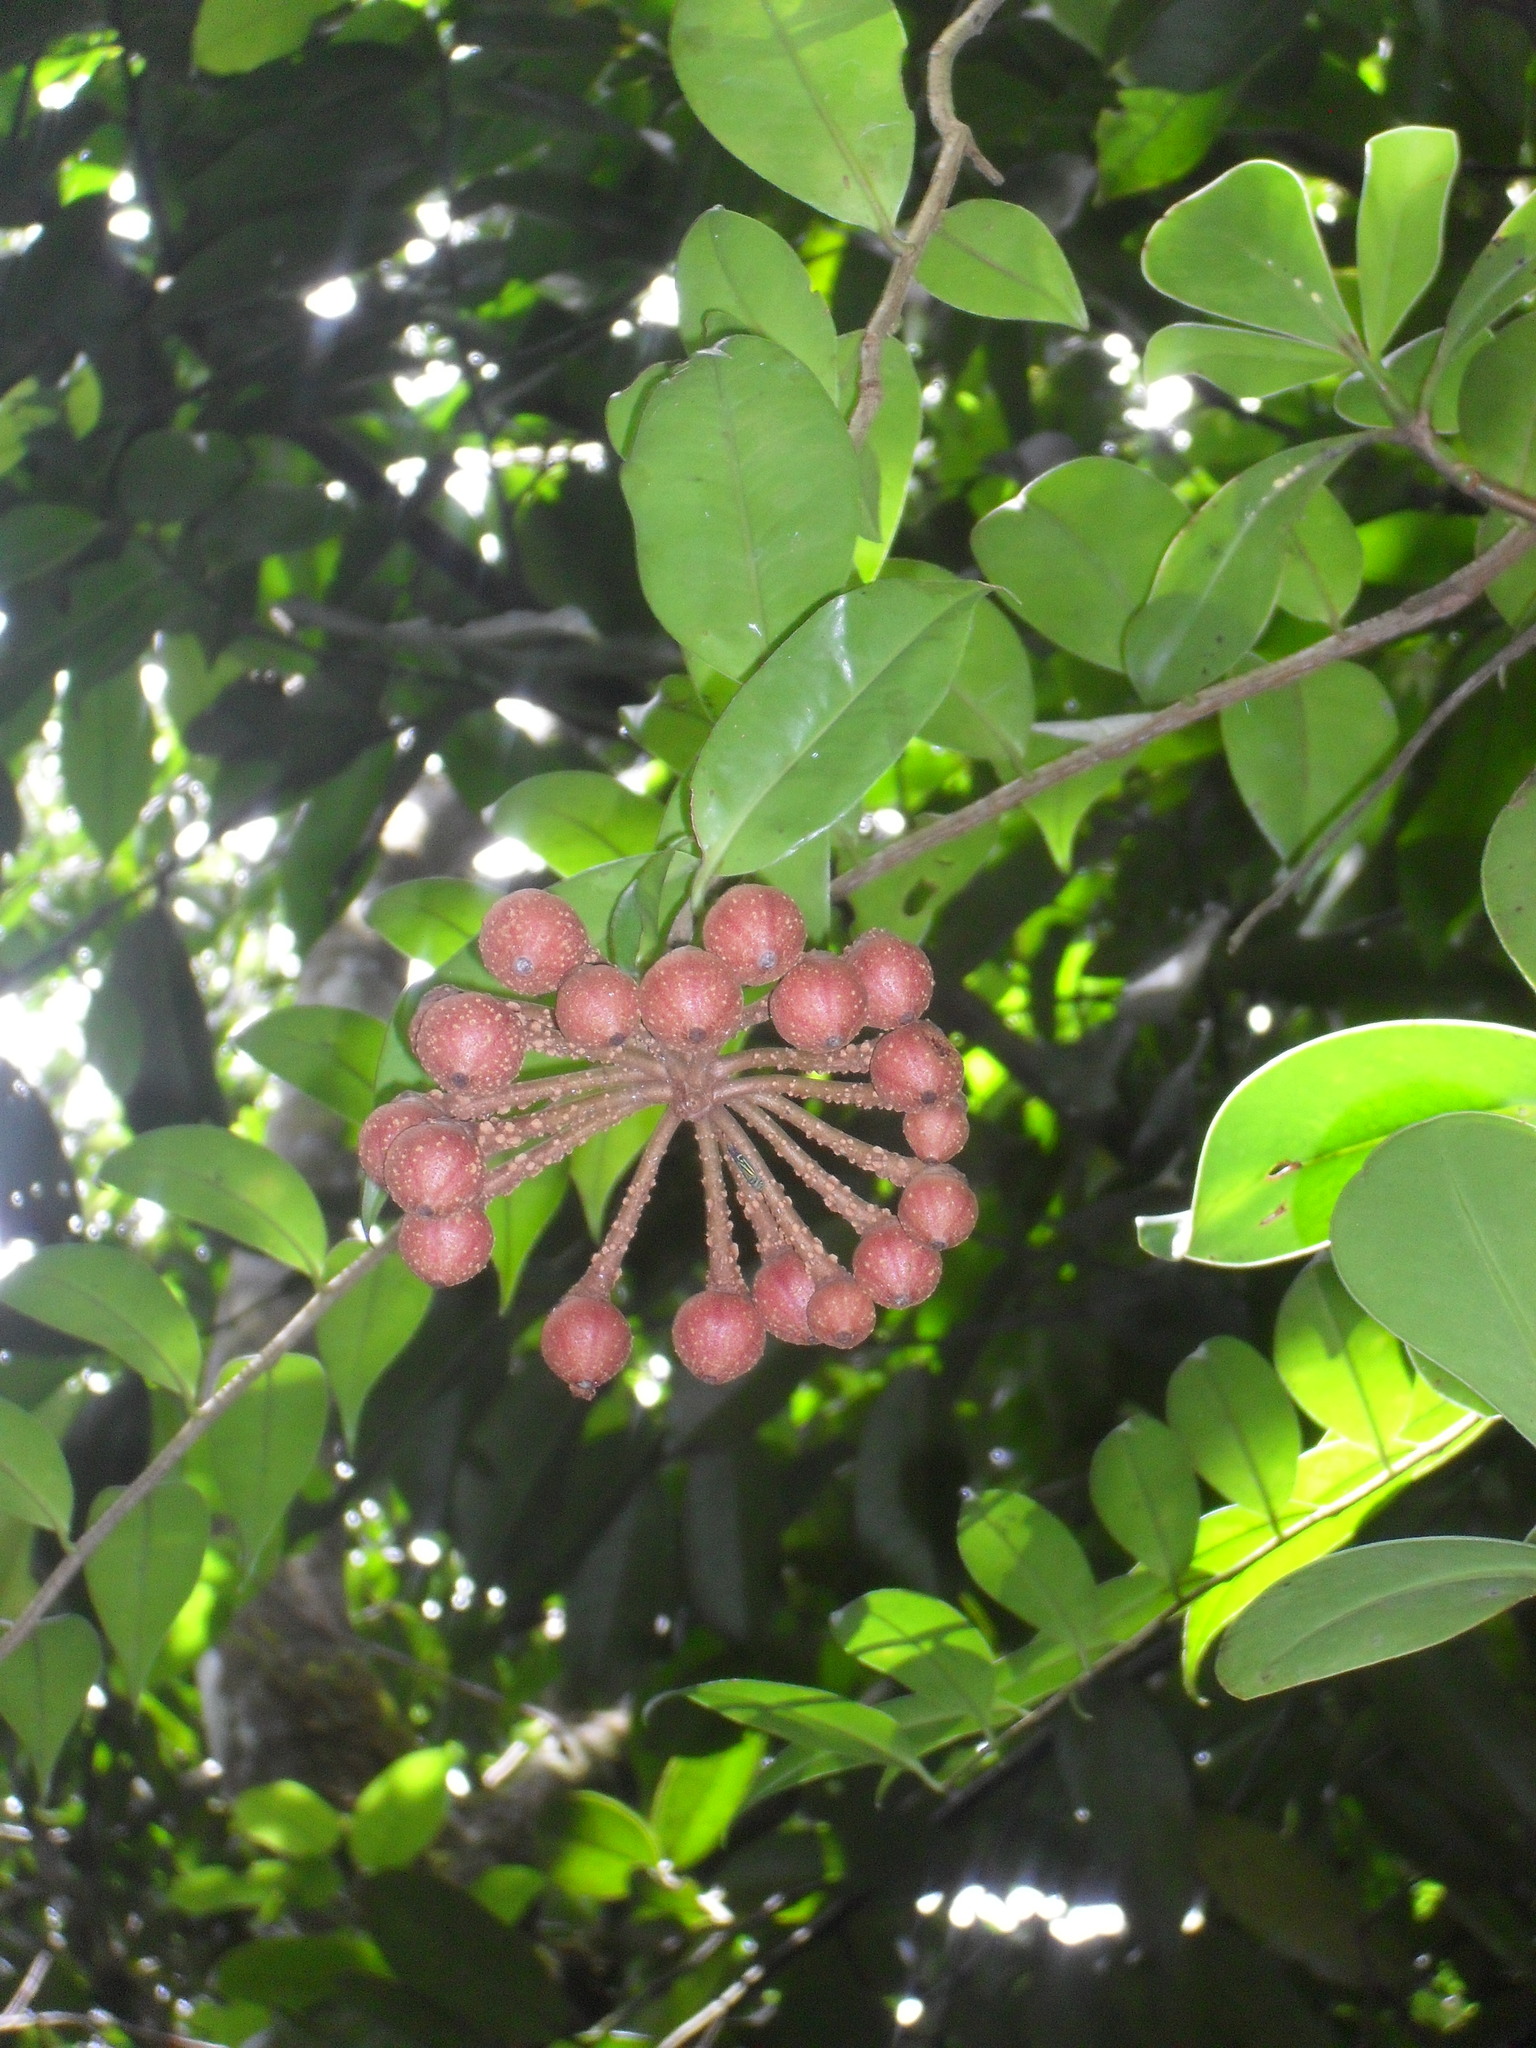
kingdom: Plantae
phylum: Tracheophyta
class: Magnoliopsida
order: Ericales
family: Marcgraviaceae
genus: Marcgravia
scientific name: Marcgravia umbellata
